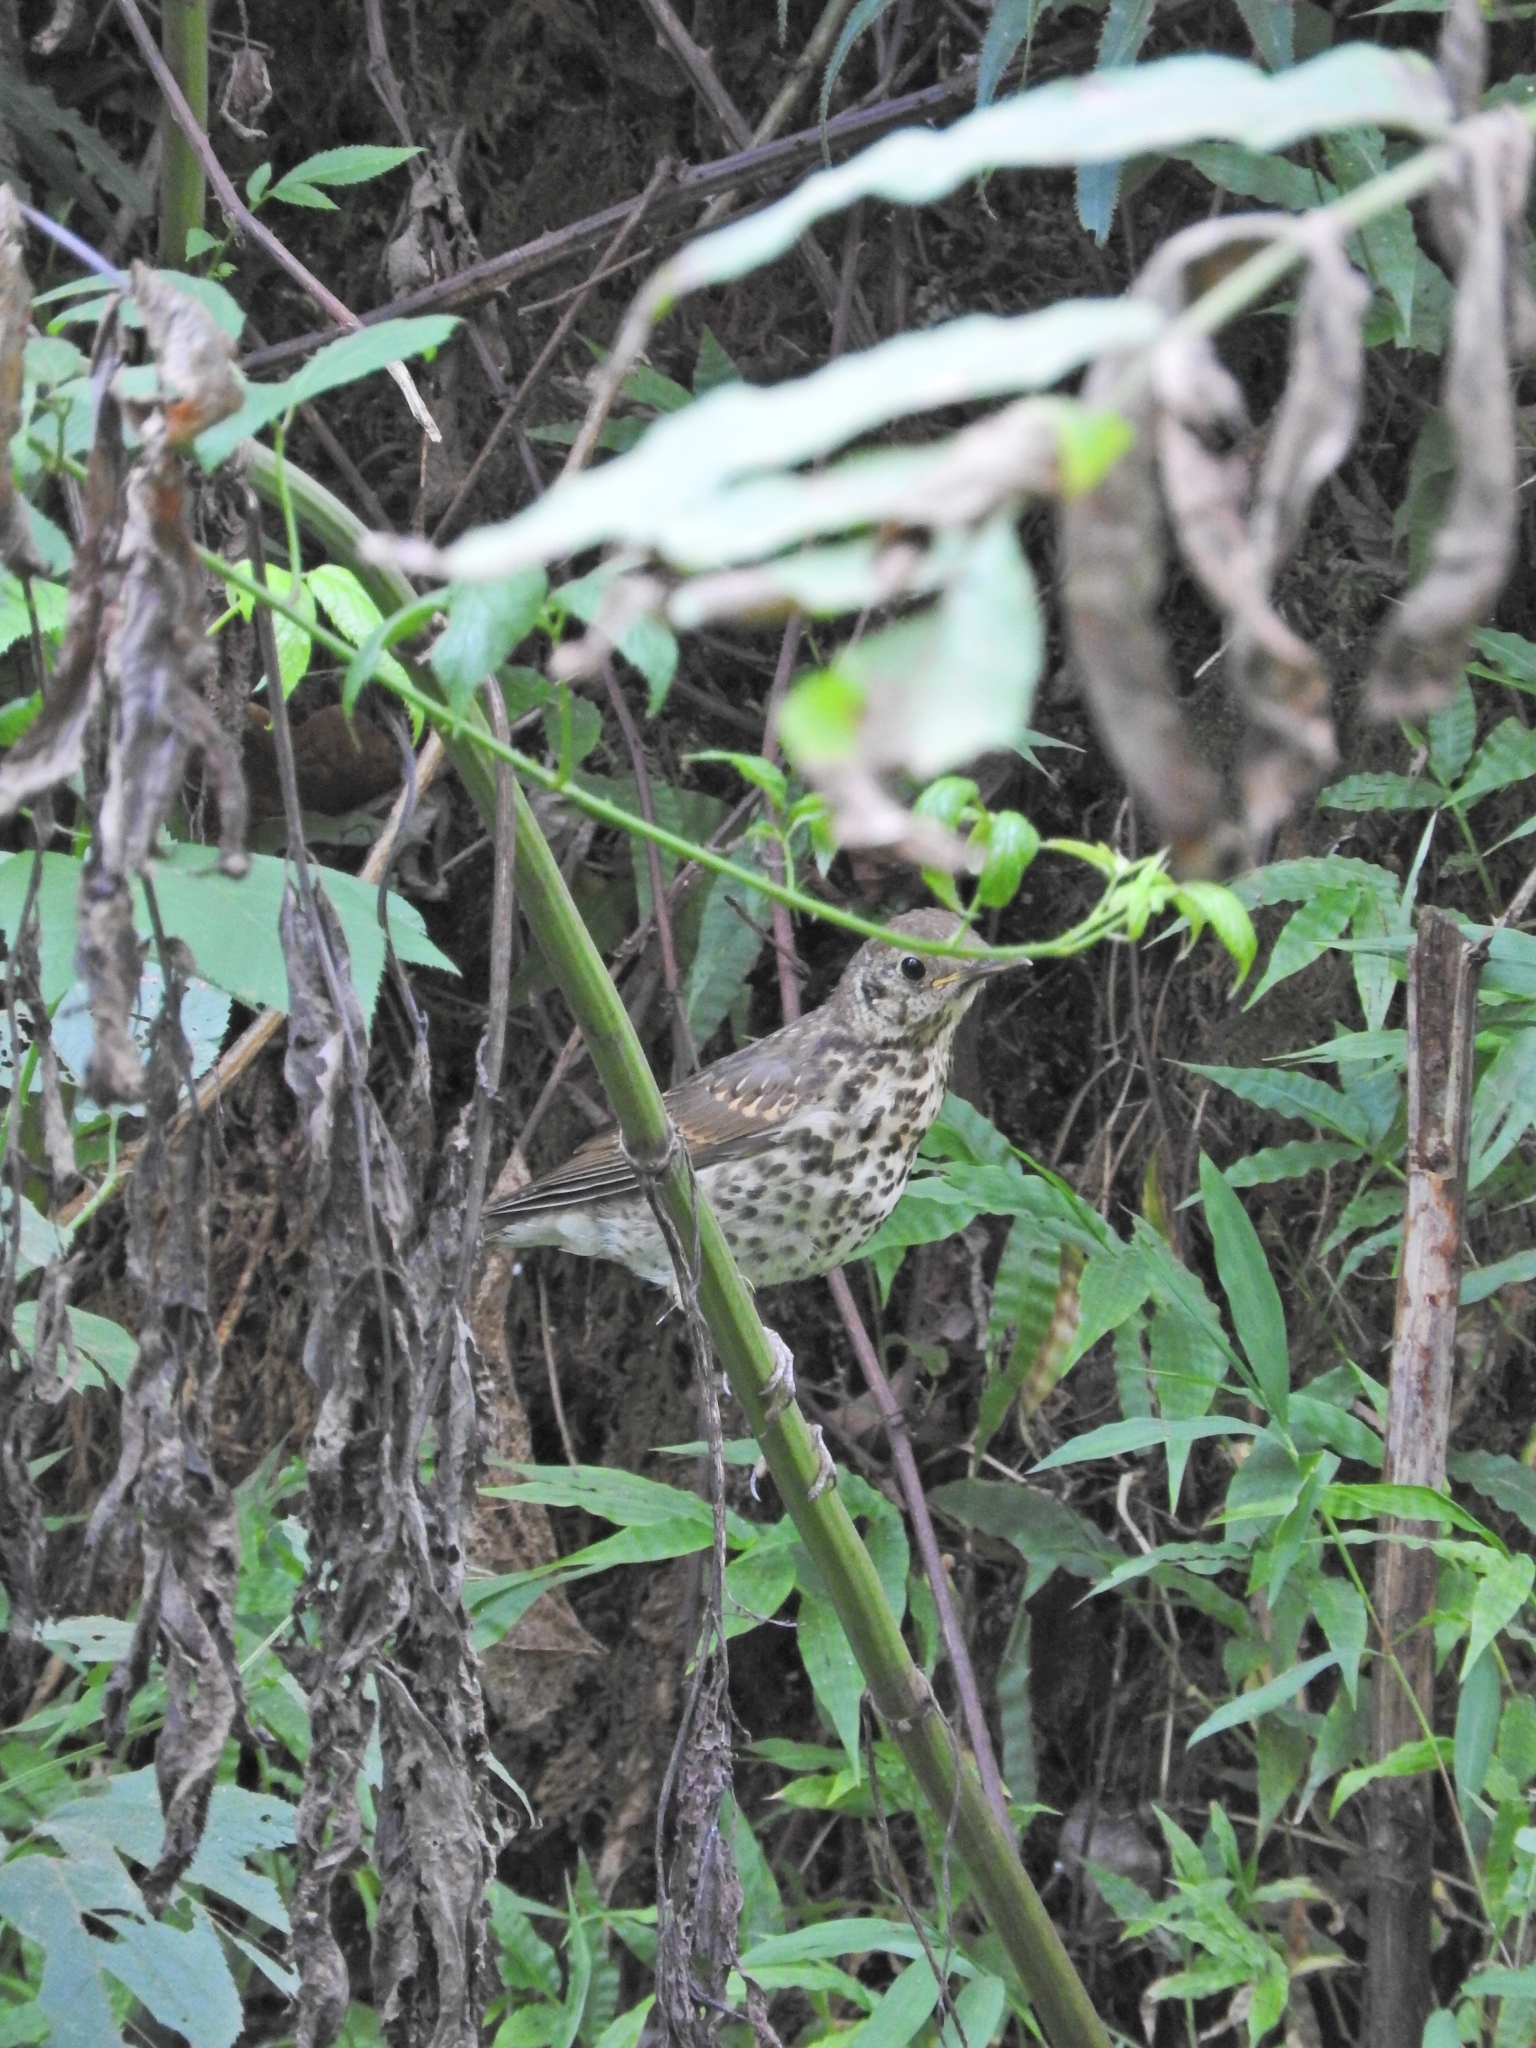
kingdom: Animalia
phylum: Chordata
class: Aves
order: Passeriformes
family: Turdidae
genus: Turdus
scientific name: Turdus philomelos
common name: Song thrush
